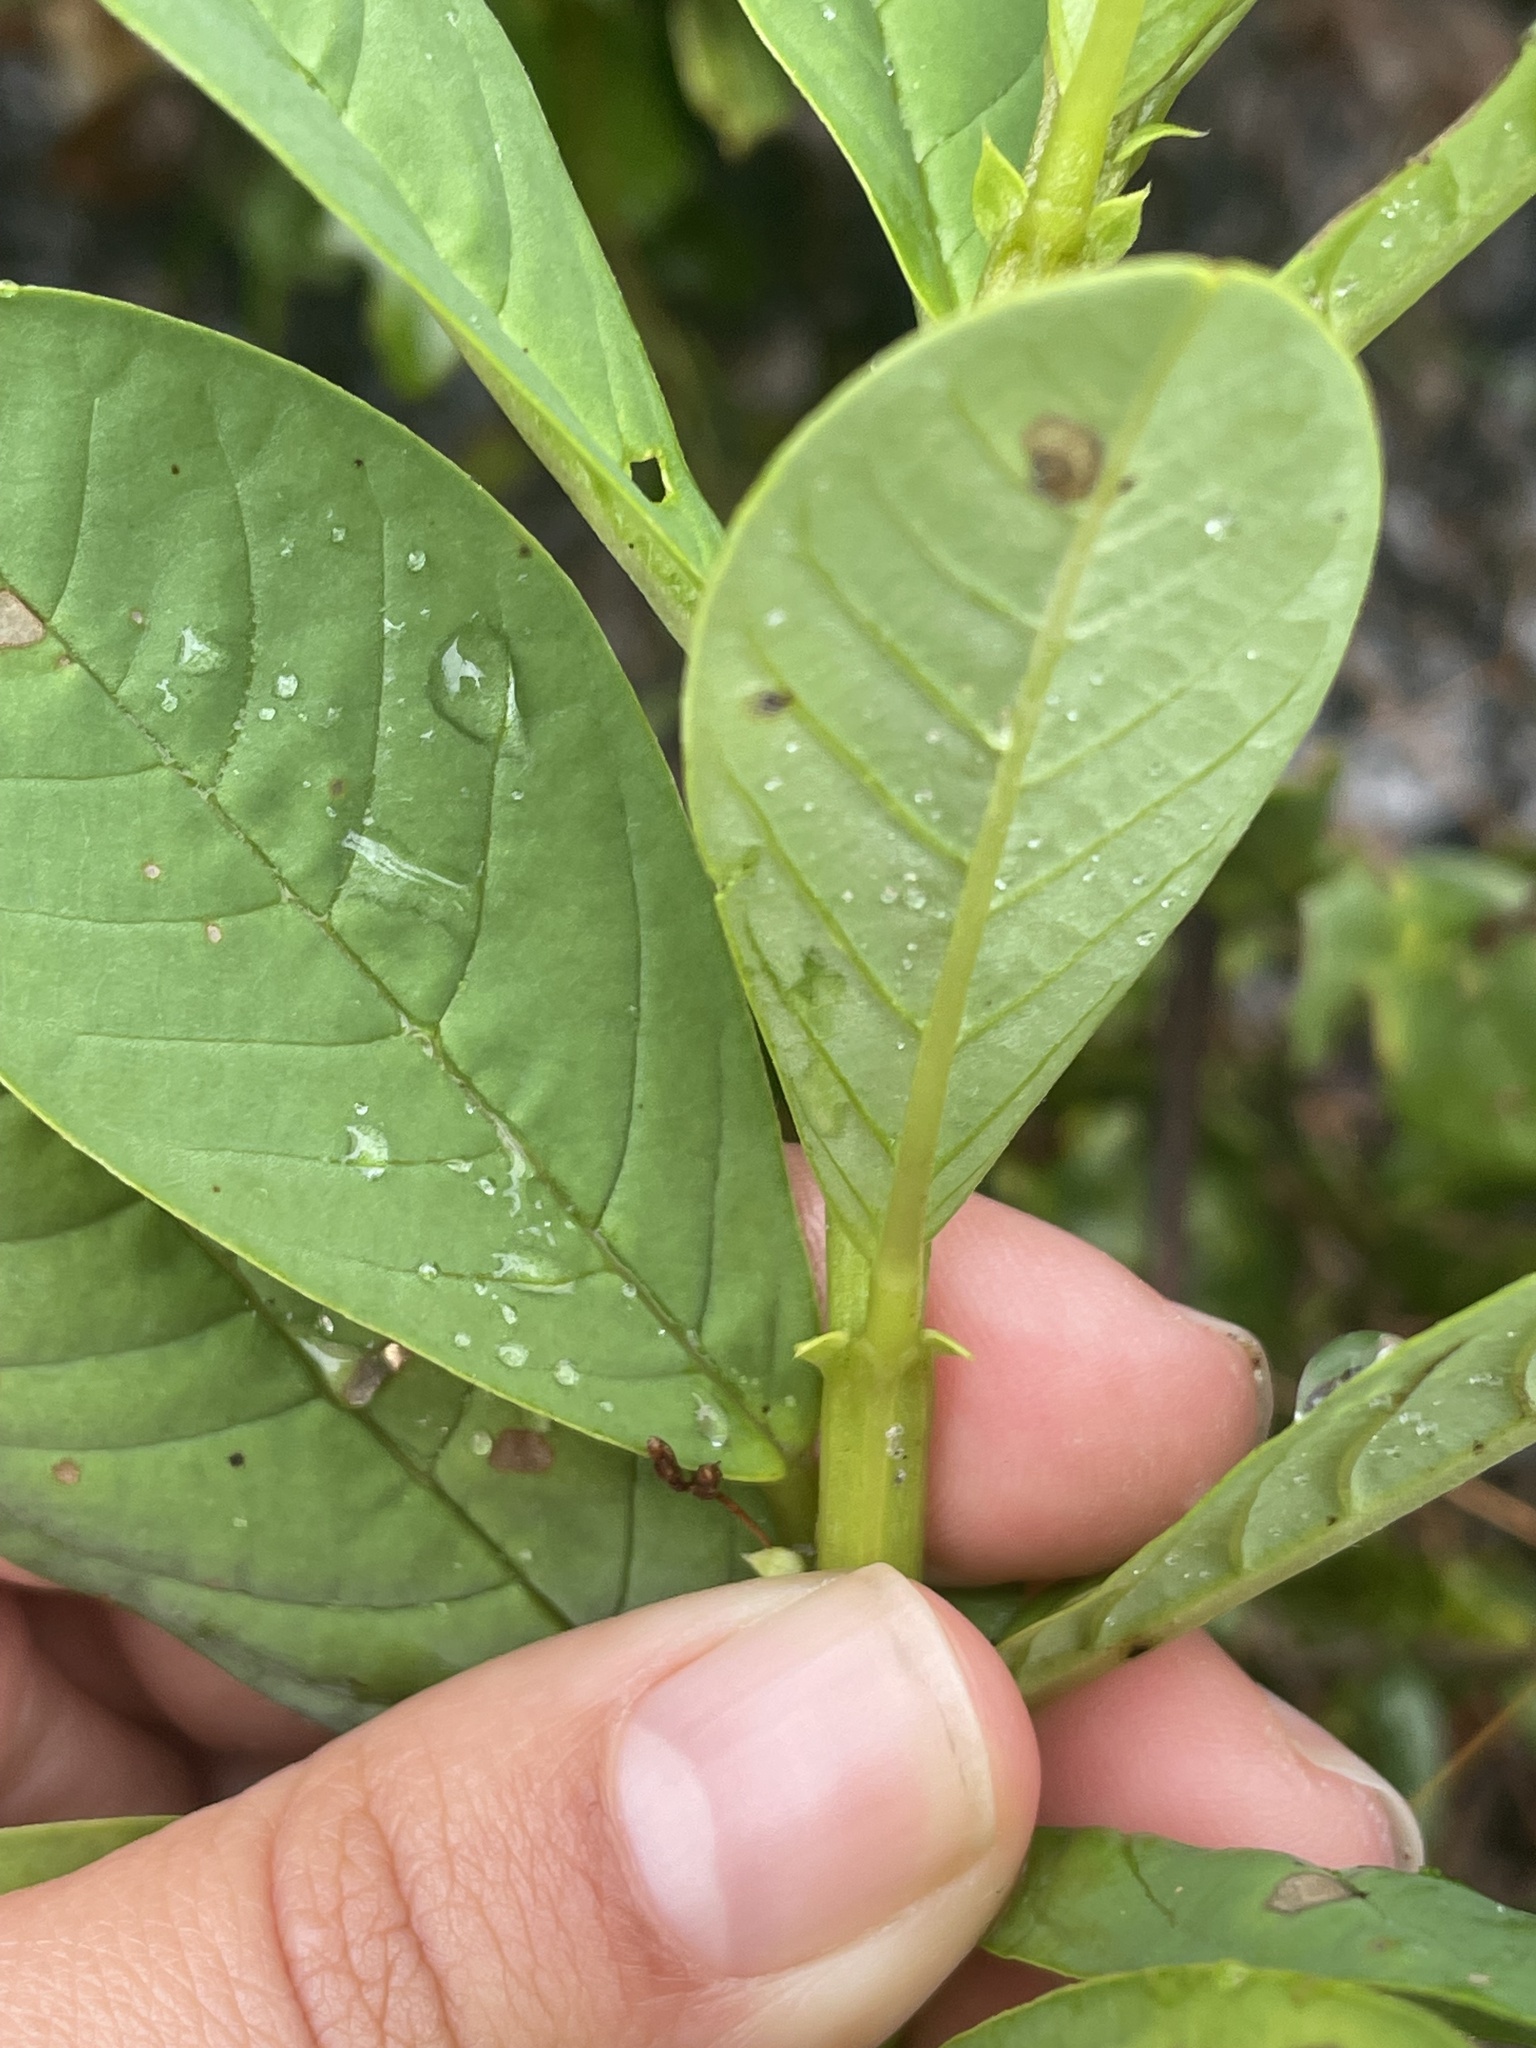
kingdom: Plantae
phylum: Tracheophyta
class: Magnoliopsida
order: Fabales
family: Fabaceae
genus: Crotalaria
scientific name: Crotalaria spectabilis
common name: Showy rattlebox
